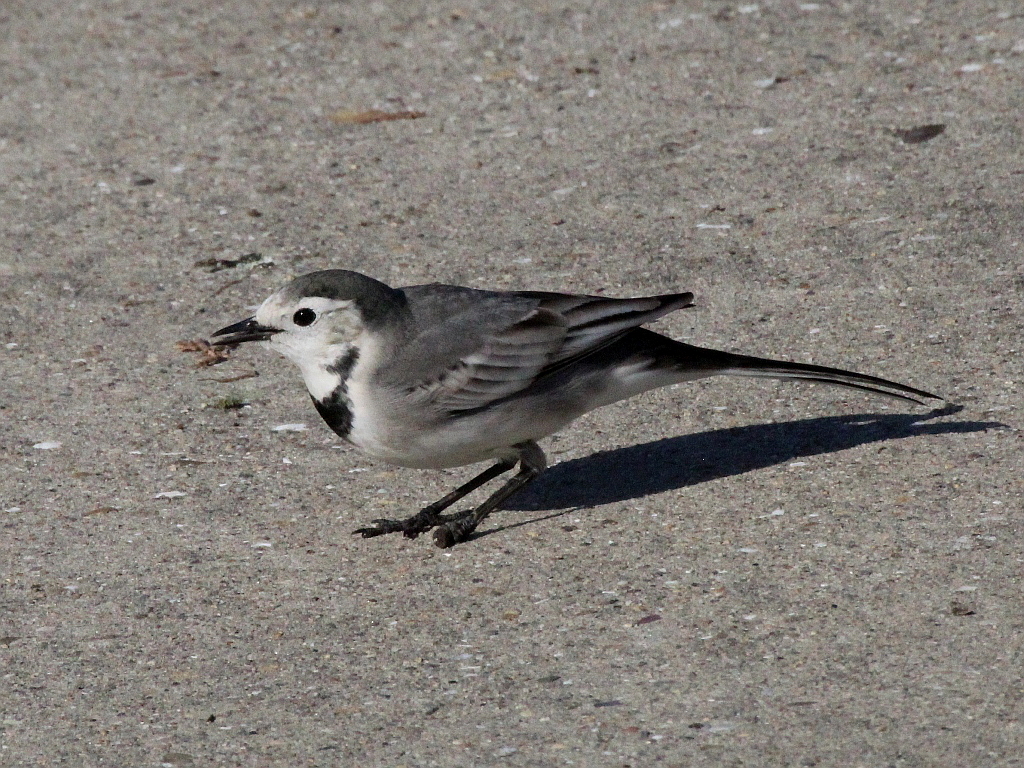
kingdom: Animalia
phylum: Chordata
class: Aves
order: Passeriformes
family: Motacillidae
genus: Motacilla
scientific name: Motacilla alba
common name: White wagtail
